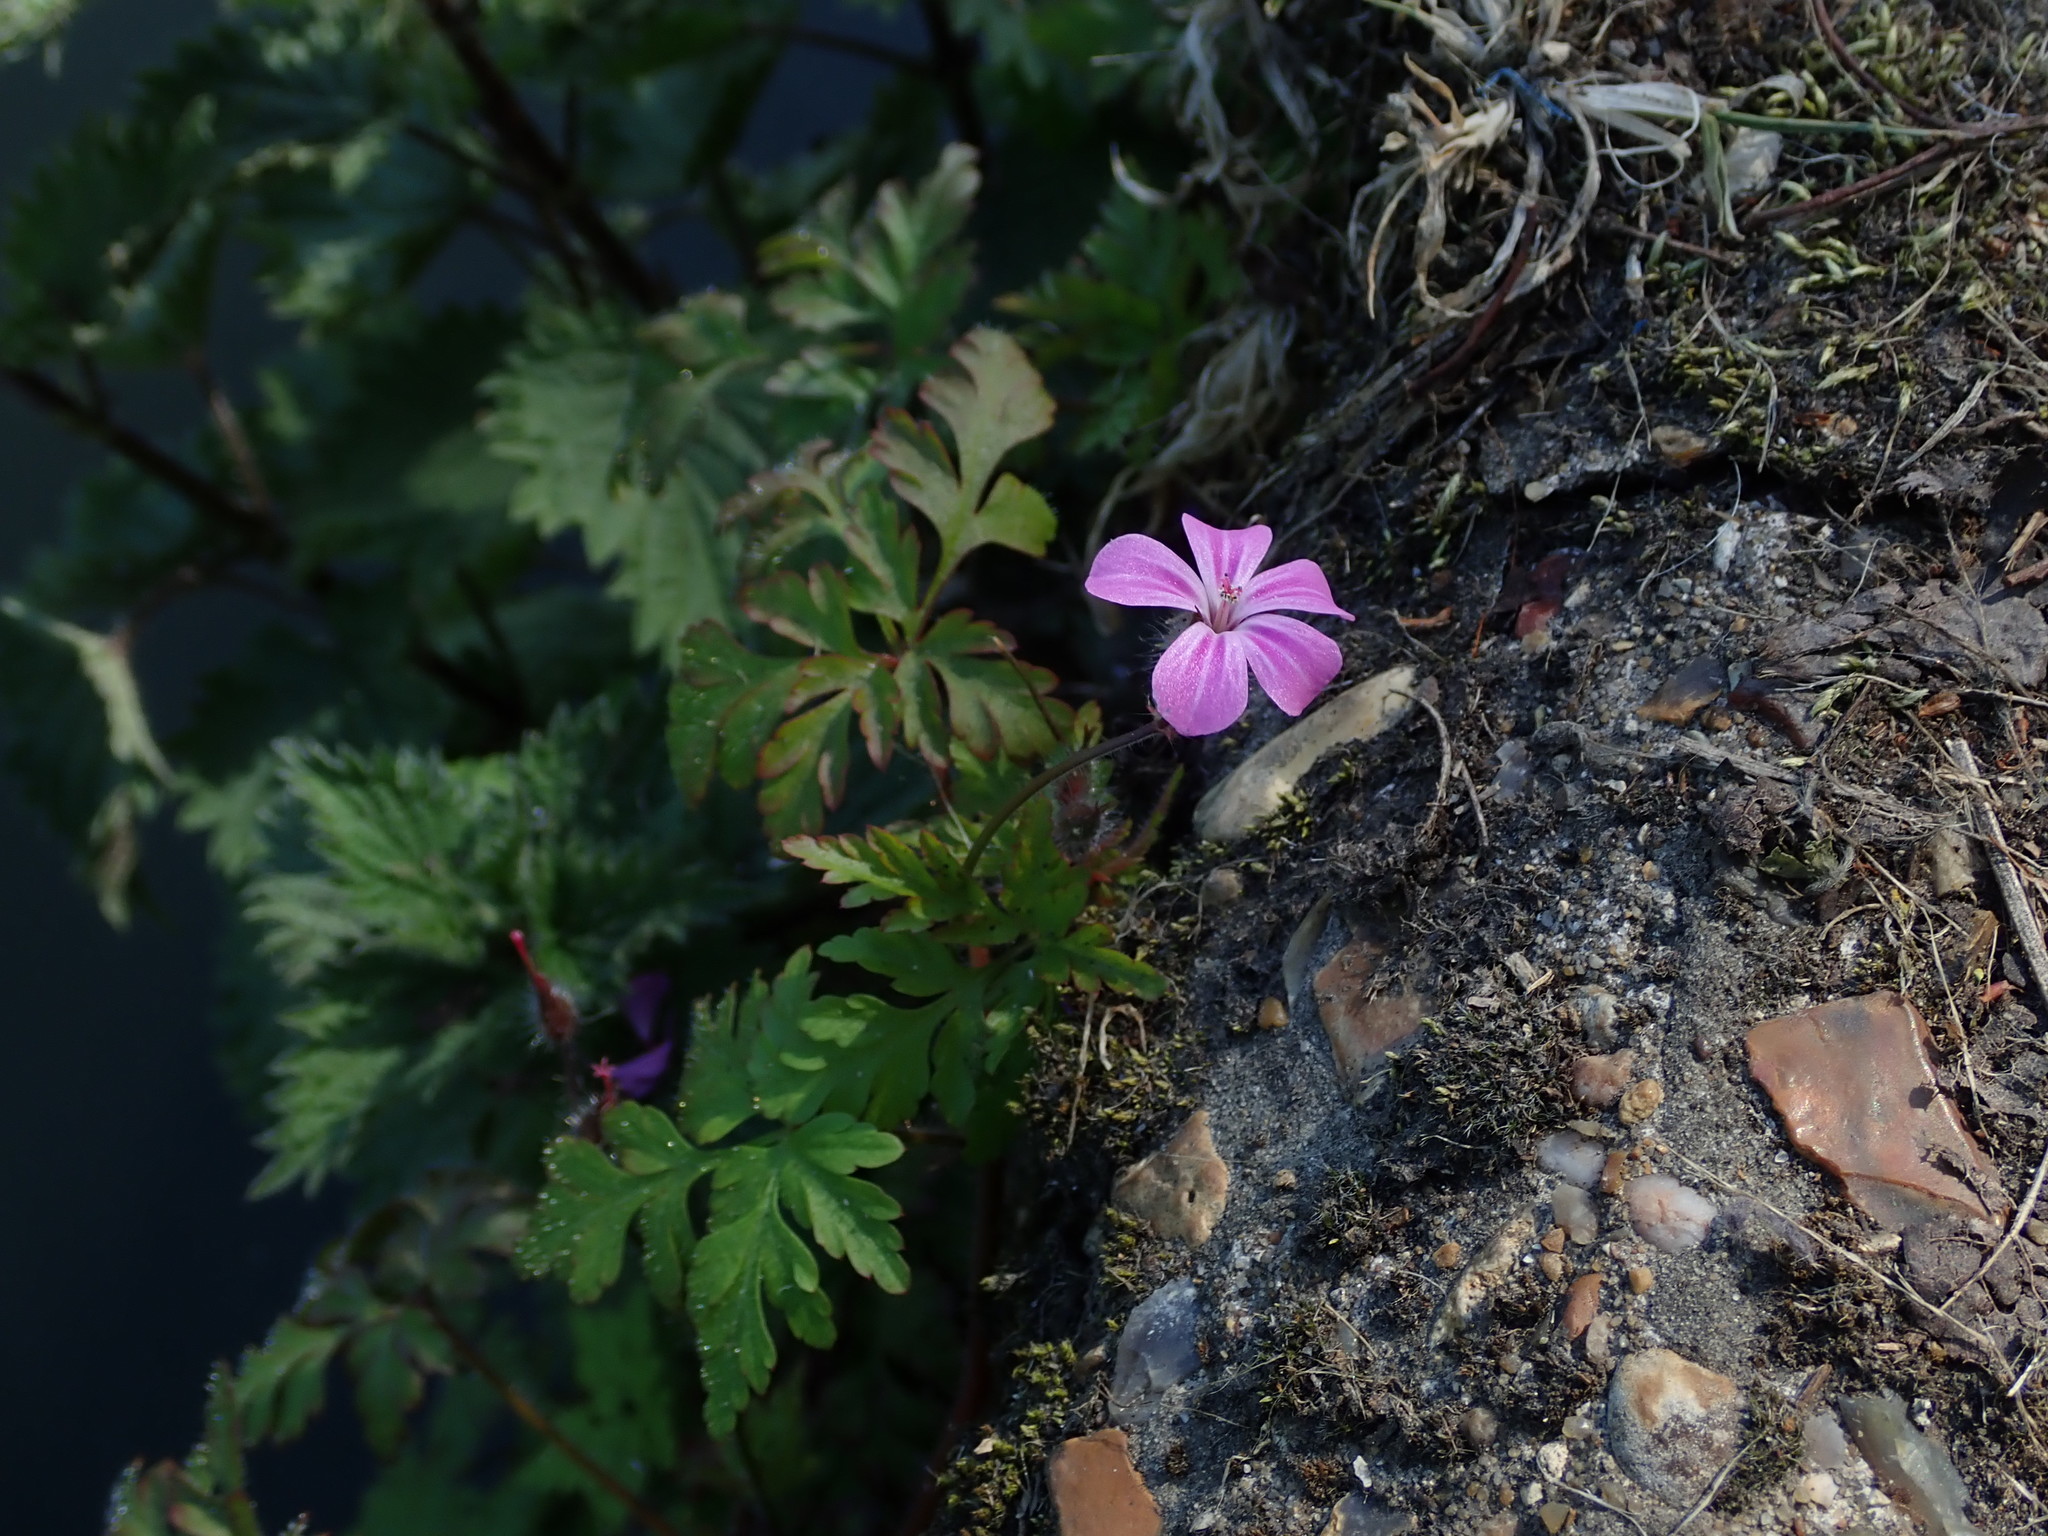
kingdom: Plantae
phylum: Tracheophyta
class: Magnoliopsida
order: Geraniales
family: Geraniaceae
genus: Geranium
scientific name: Geranium robertianum
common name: Herb-robert
